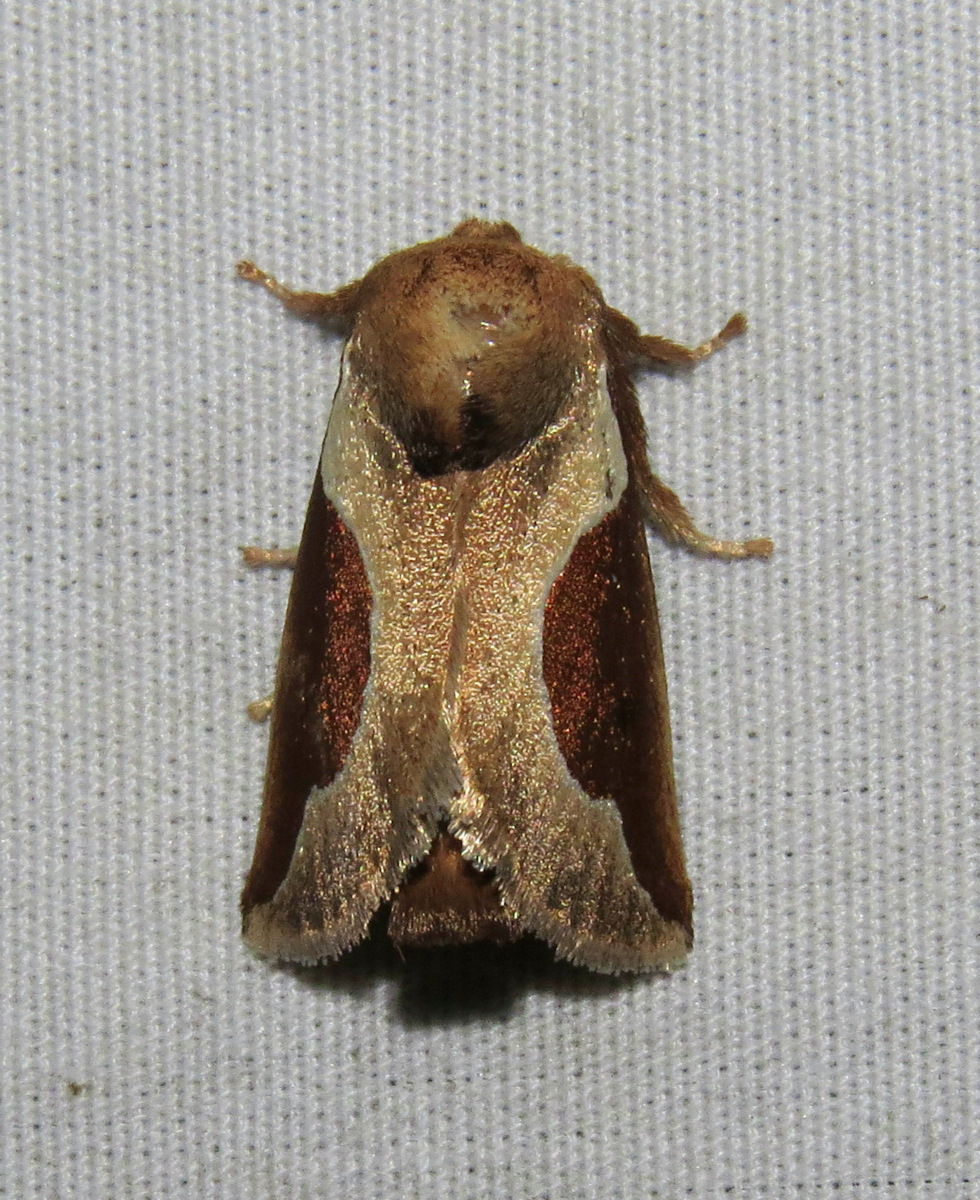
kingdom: Animalia
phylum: Arthropoda
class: Insecta
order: Lepidoptera
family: Limacodidae
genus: Prolimacodes
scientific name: Prolimacodes badia
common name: Skiff moth
